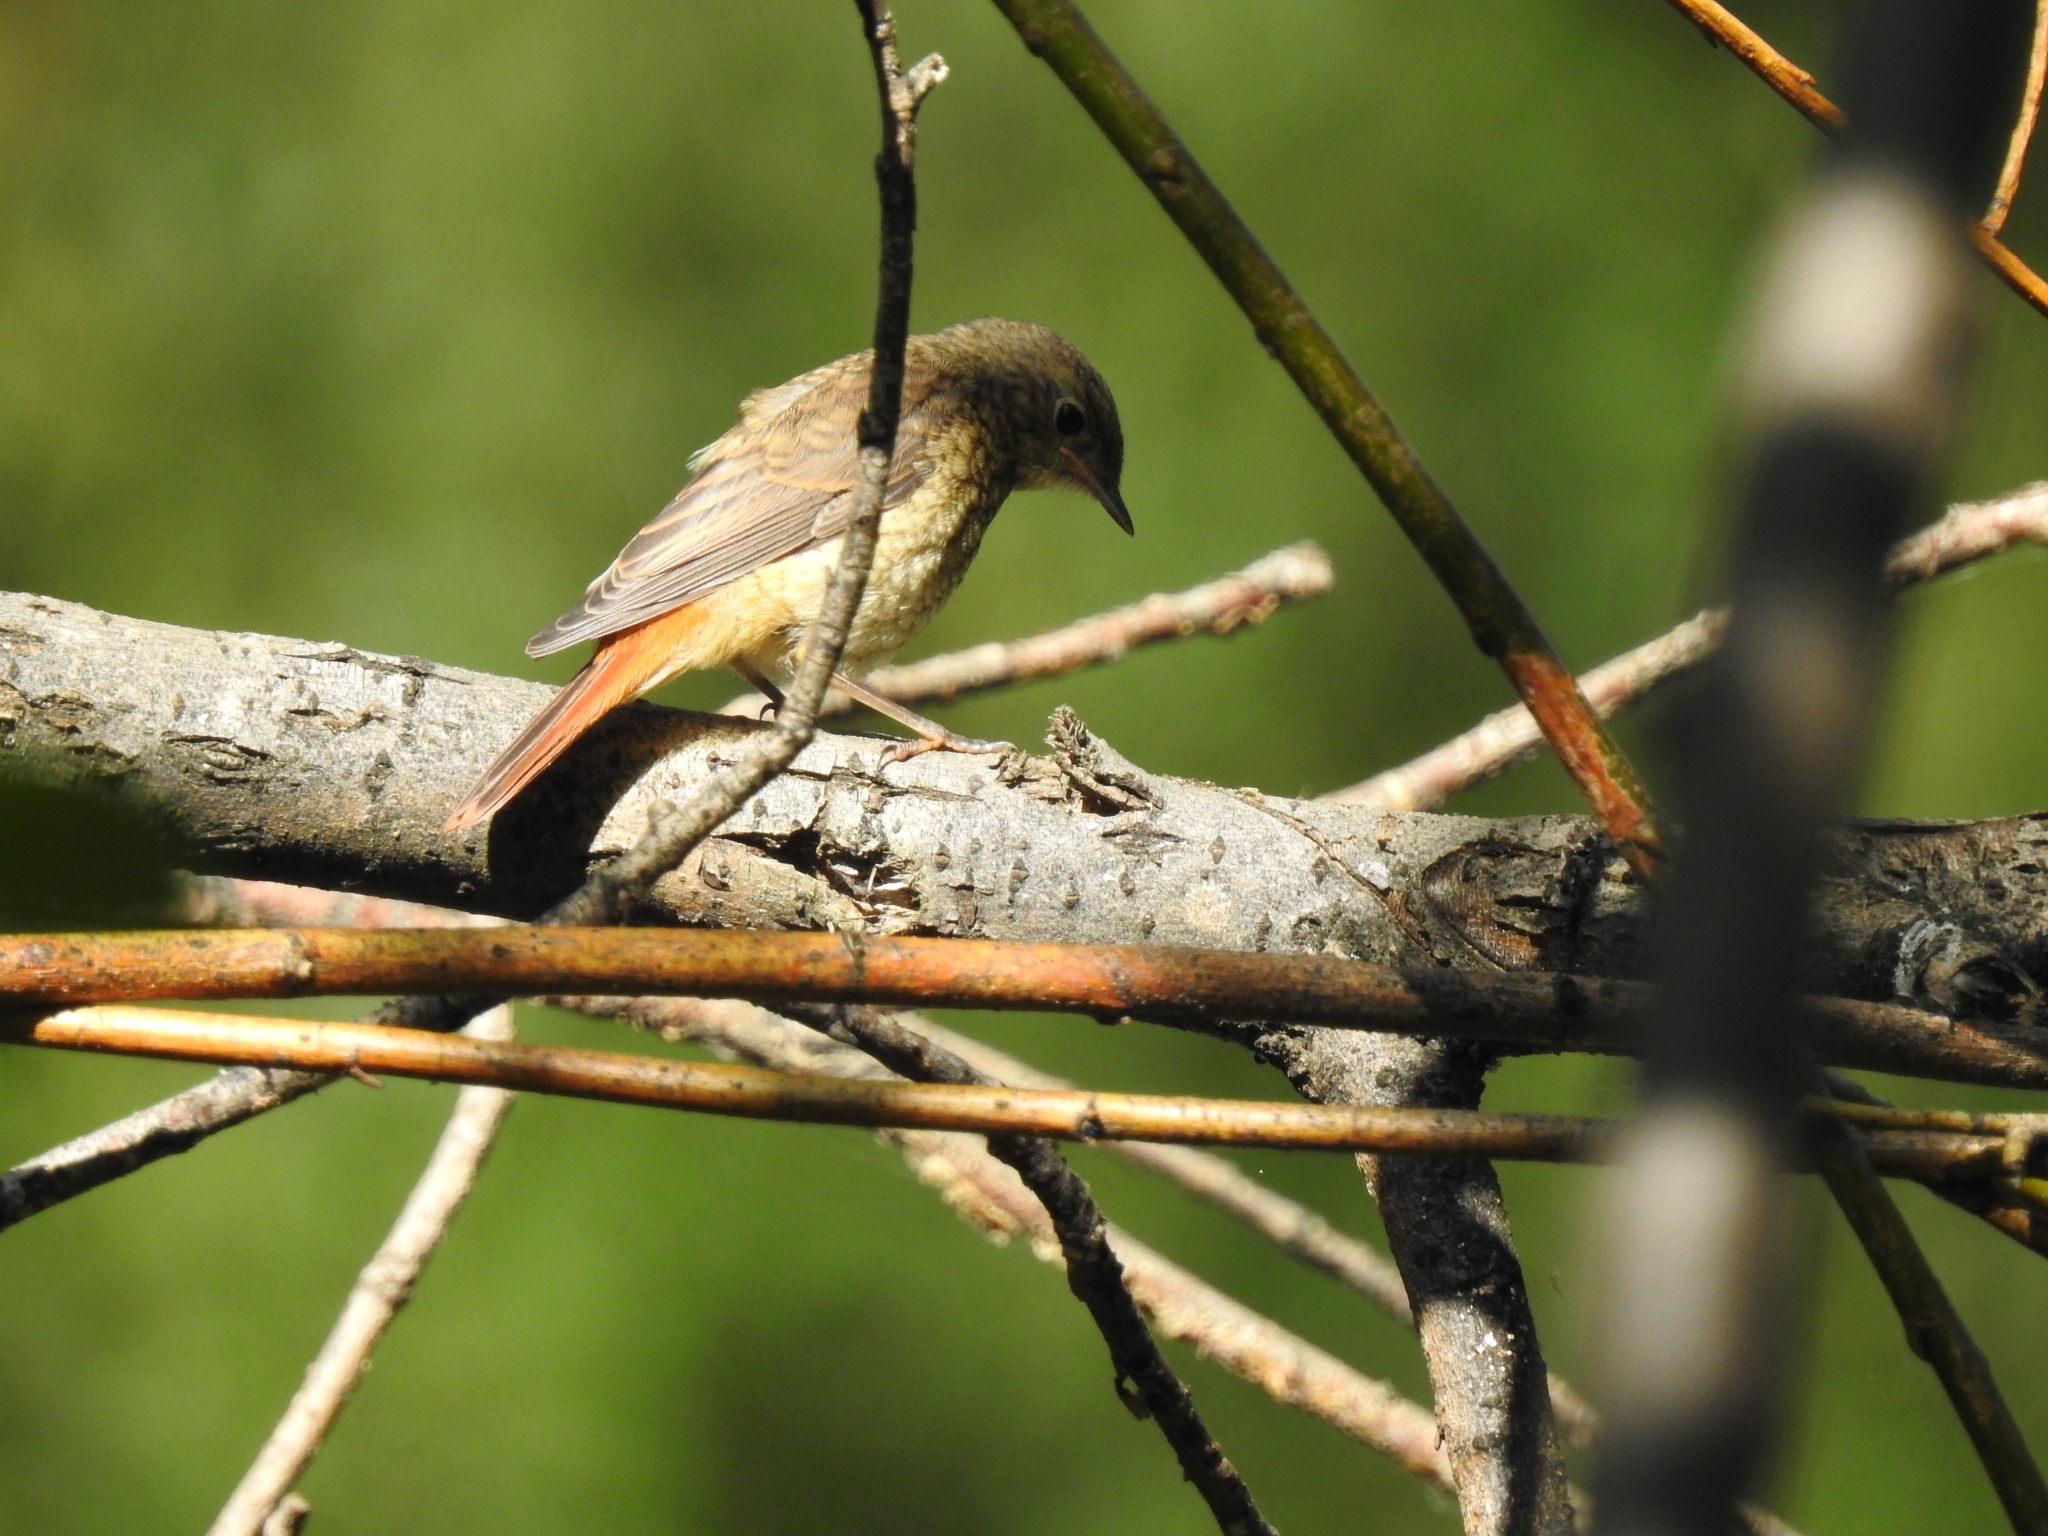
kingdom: Animalia
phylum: Chordata
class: Aves
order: Passeriformes
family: Muscicapidae
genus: Phoenicurus
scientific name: Phoenicurus phoenicurus
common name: Common redstart
